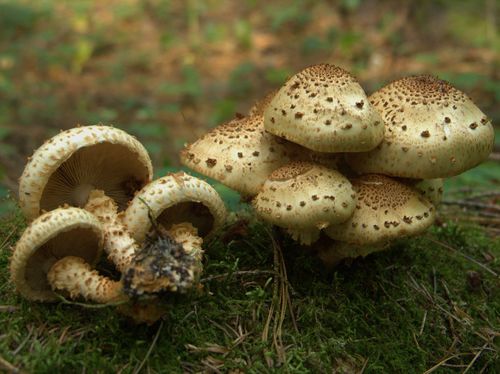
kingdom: Fungi
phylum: Basidiomycota
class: Agaricomycetes
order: Agaricales
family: Strophariaceae
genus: Pholiota
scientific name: Pholiota squarrosa
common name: Shaggy pholiota
